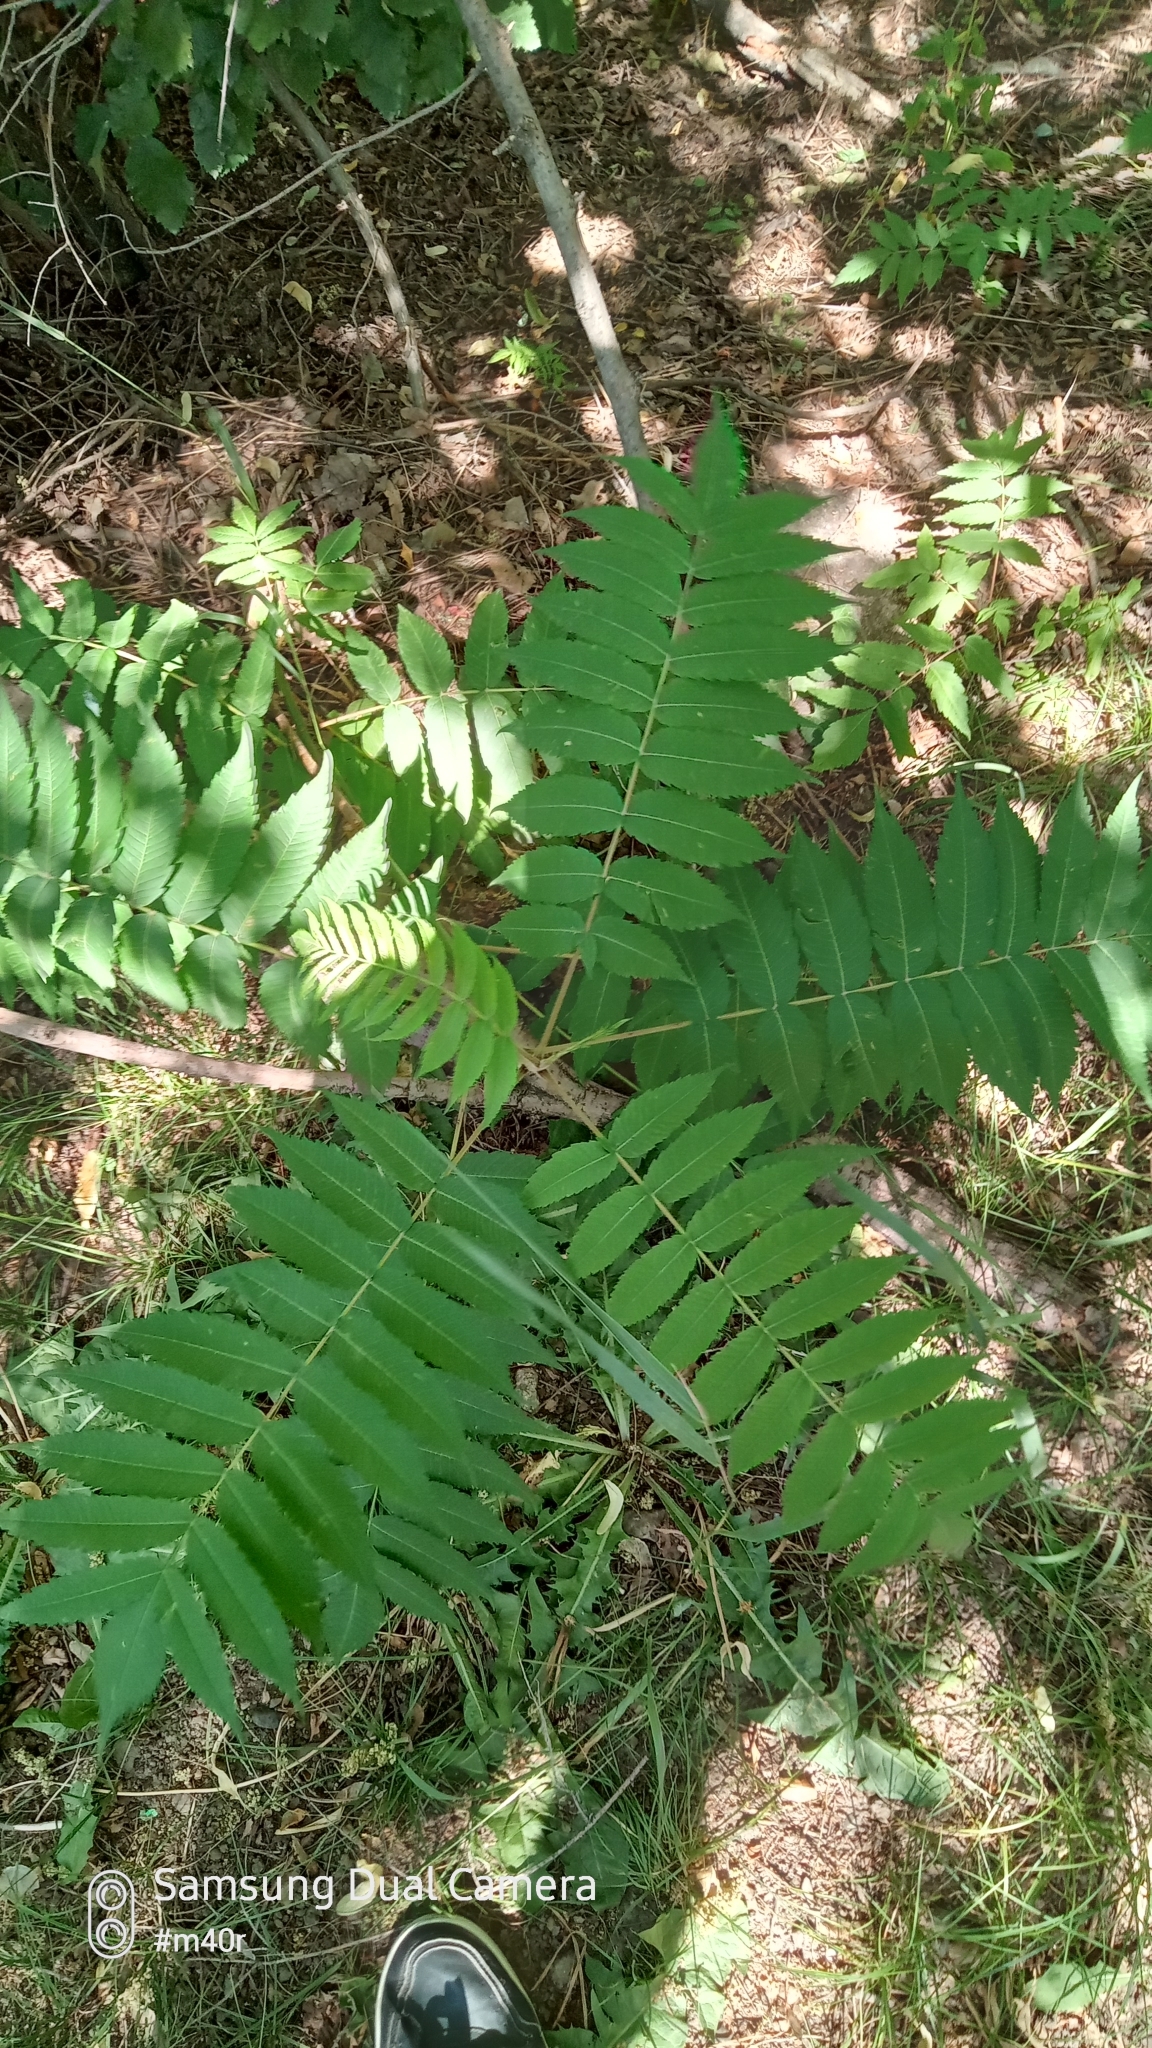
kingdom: Plantae
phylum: Tracheophyta
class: Magnoliopsida
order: Sapindales
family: Anacardiaceae
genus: Rhus
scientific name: Rhus typhina
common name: Staghorn sumac
